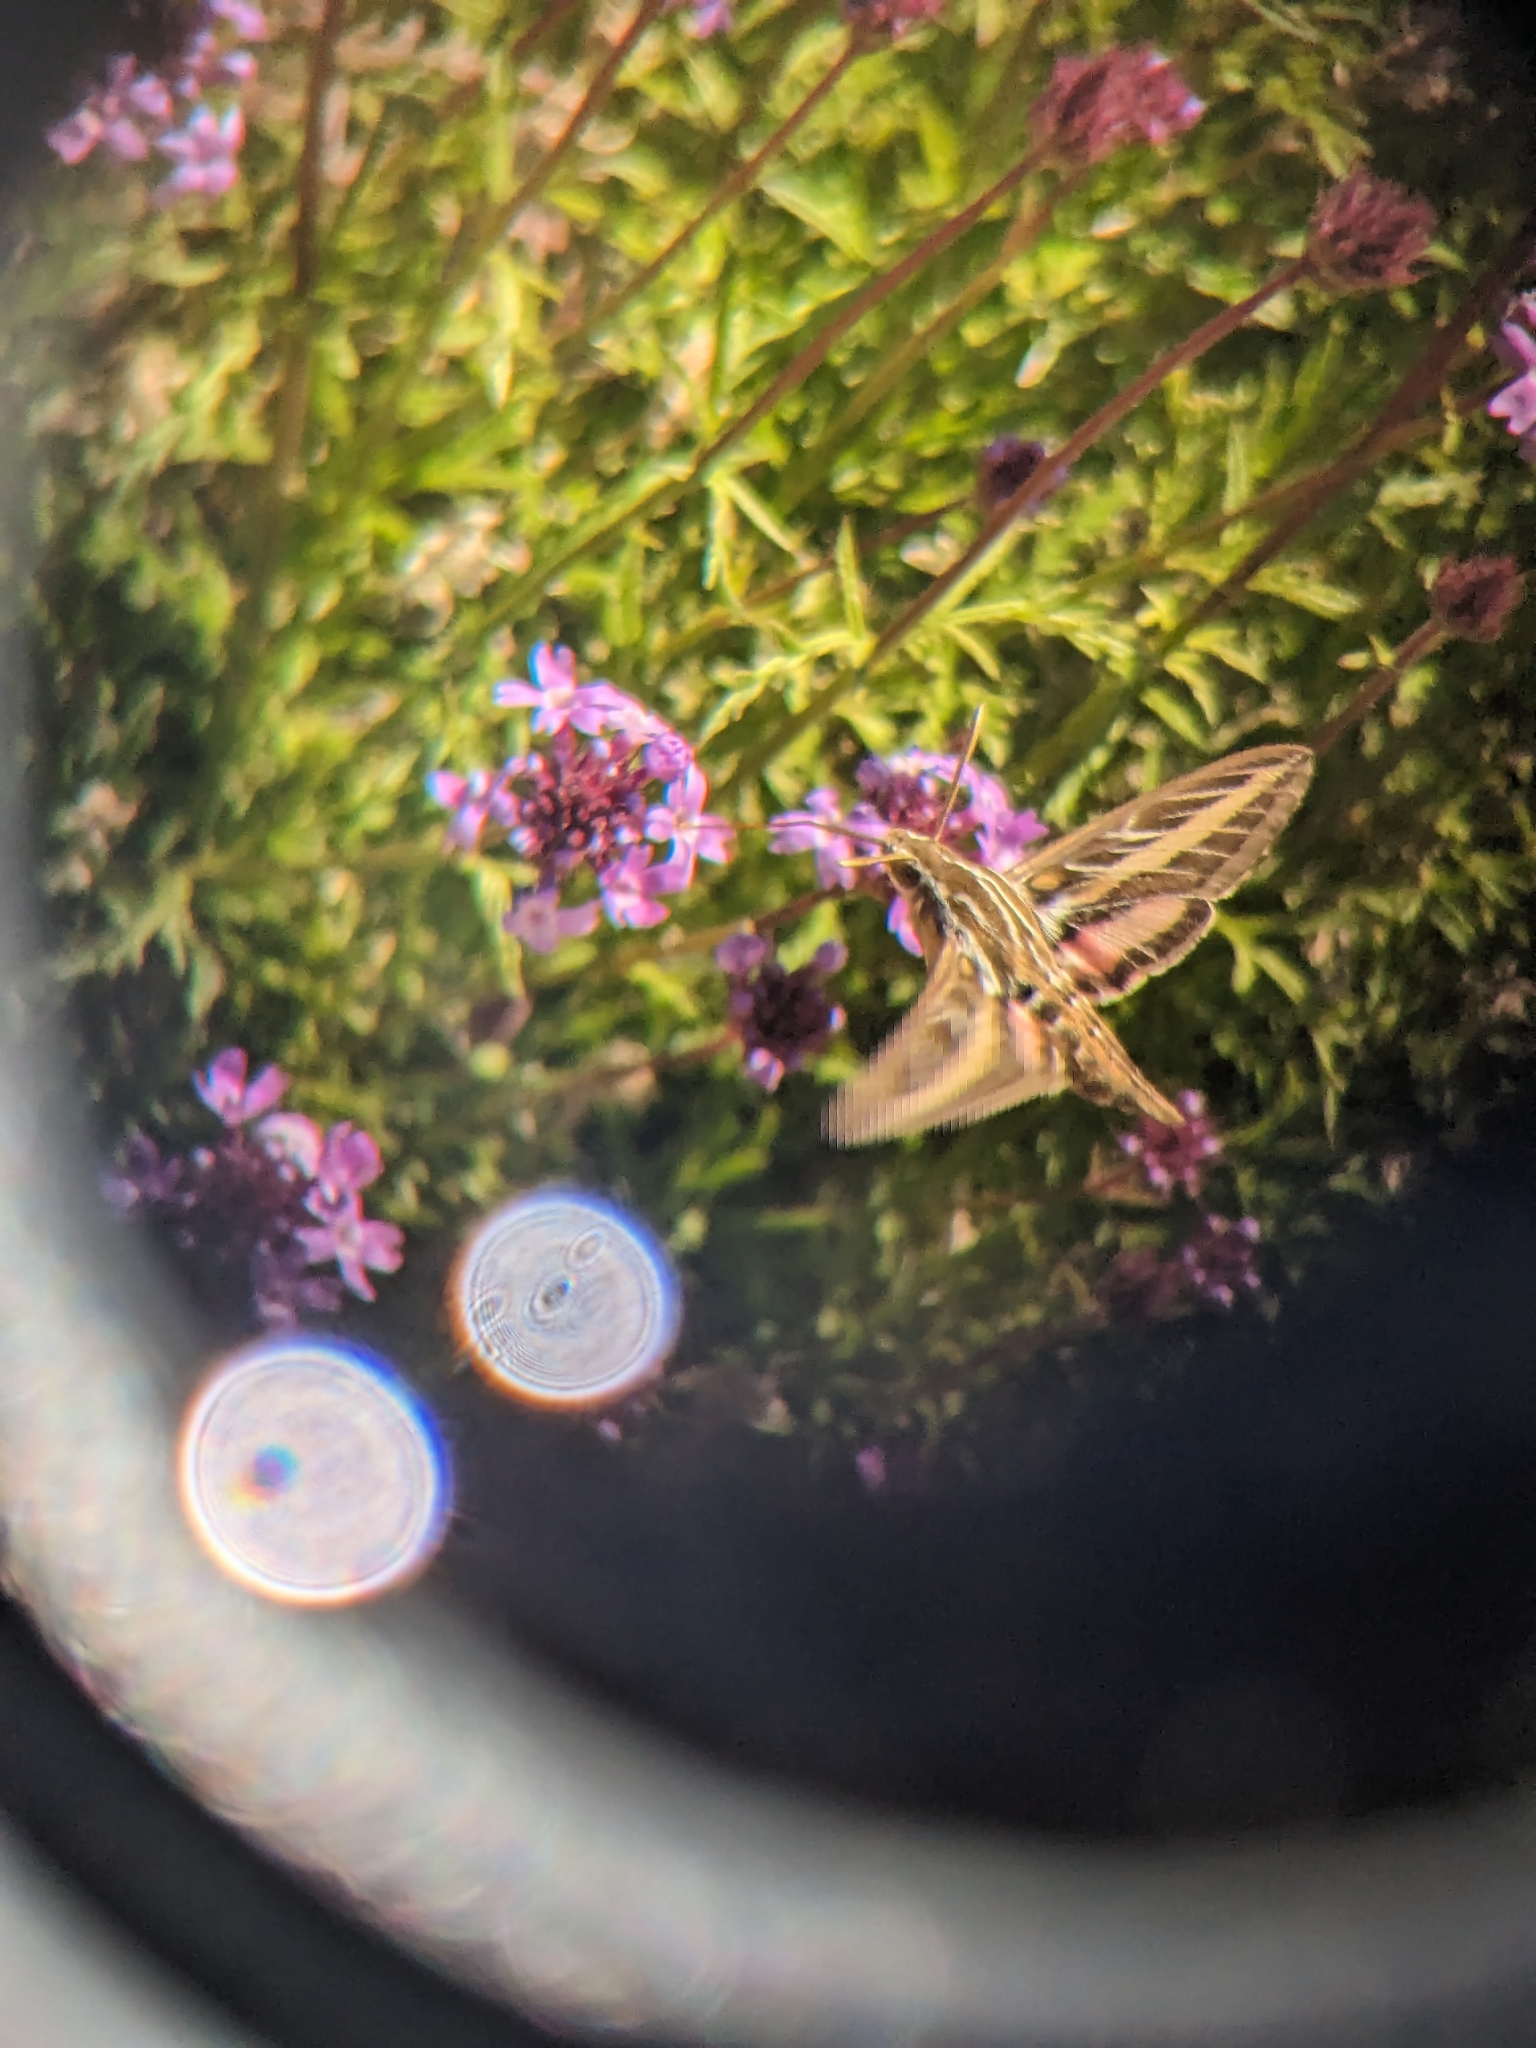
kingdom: Animalia
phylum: Arthropoda
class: Insecta
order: Lepidoptera
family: Sphingidae
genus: Hyles
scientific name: Hyles lineata
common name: White-lined sphinx
